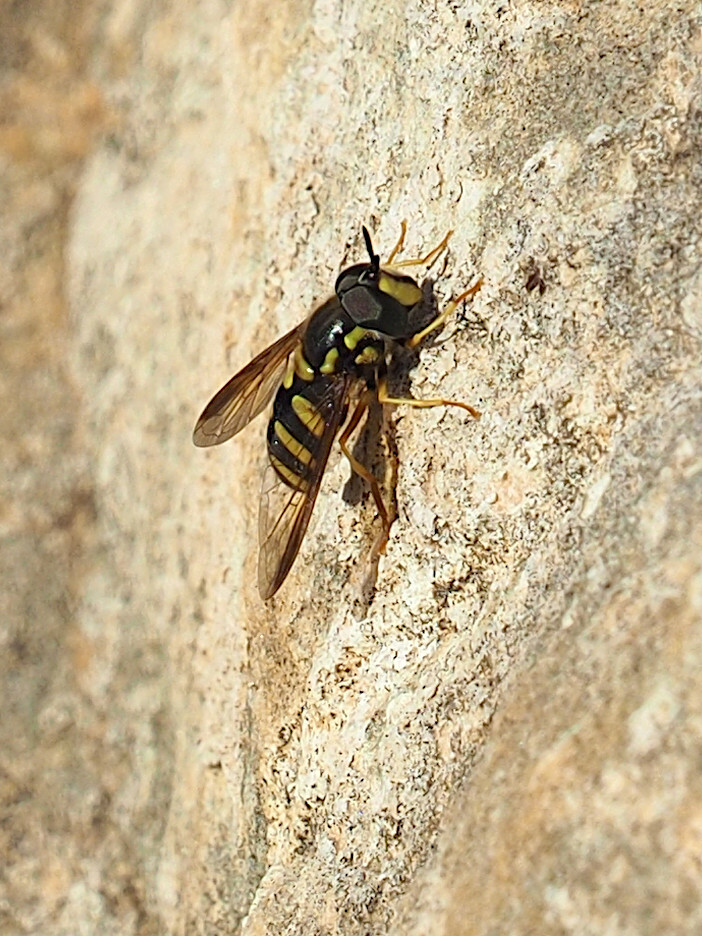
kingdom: Animalia
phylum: Arthropoda
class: Insecta
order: Diptera
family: Syrphidae
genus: Chrysotoxum
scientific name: Chrysotoxum intermedium
